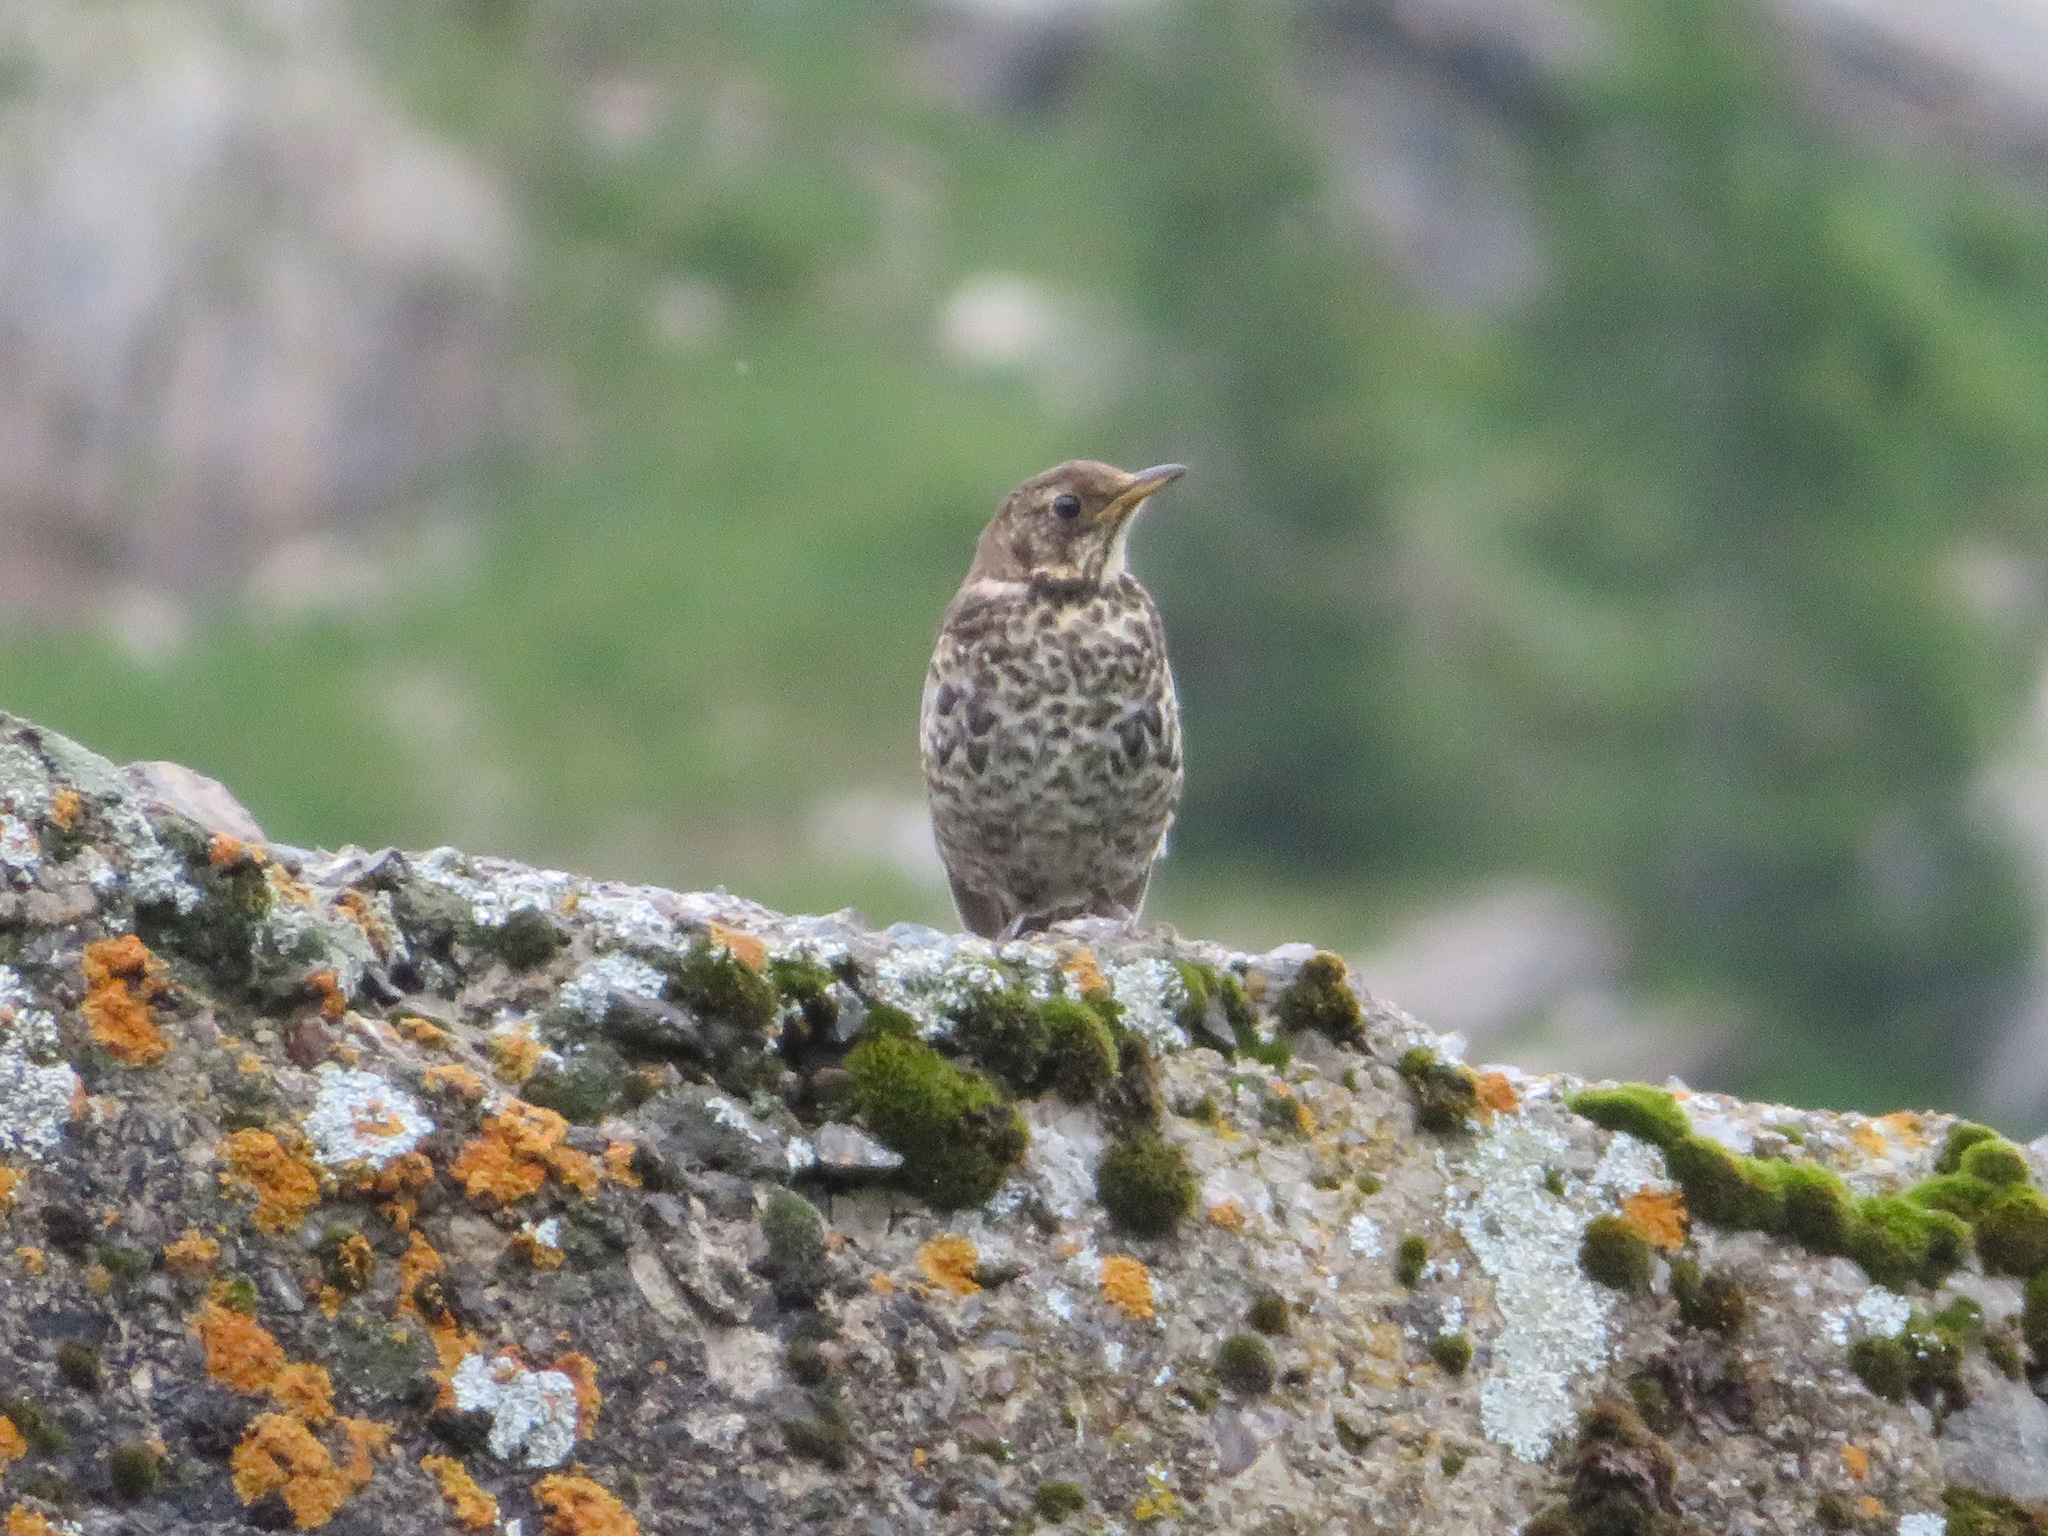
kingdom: Animalia
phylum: Chordata
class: Aves
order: Passeriformes
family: Turdidae
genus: Turdus
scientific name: Turdus torquatus
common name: Ring ouzel
